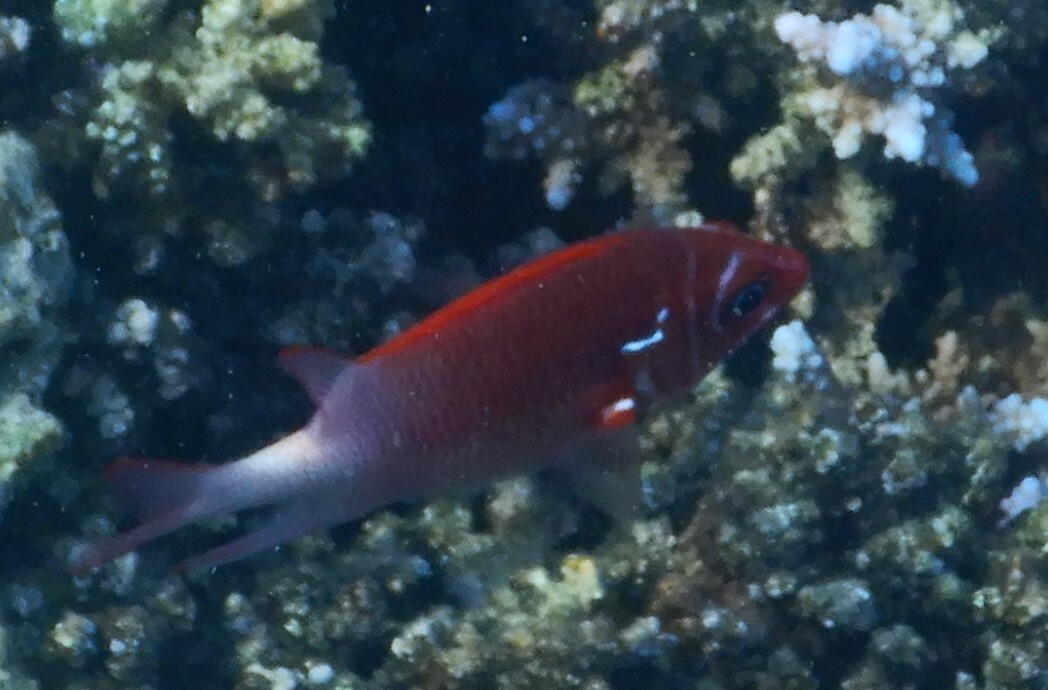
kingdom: Animalia
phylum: Chordata
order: Beryciformes
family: Holocentridae
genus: Sargocentron
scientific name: Sargocentron caudimaculatum
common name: Fanfin soldier
